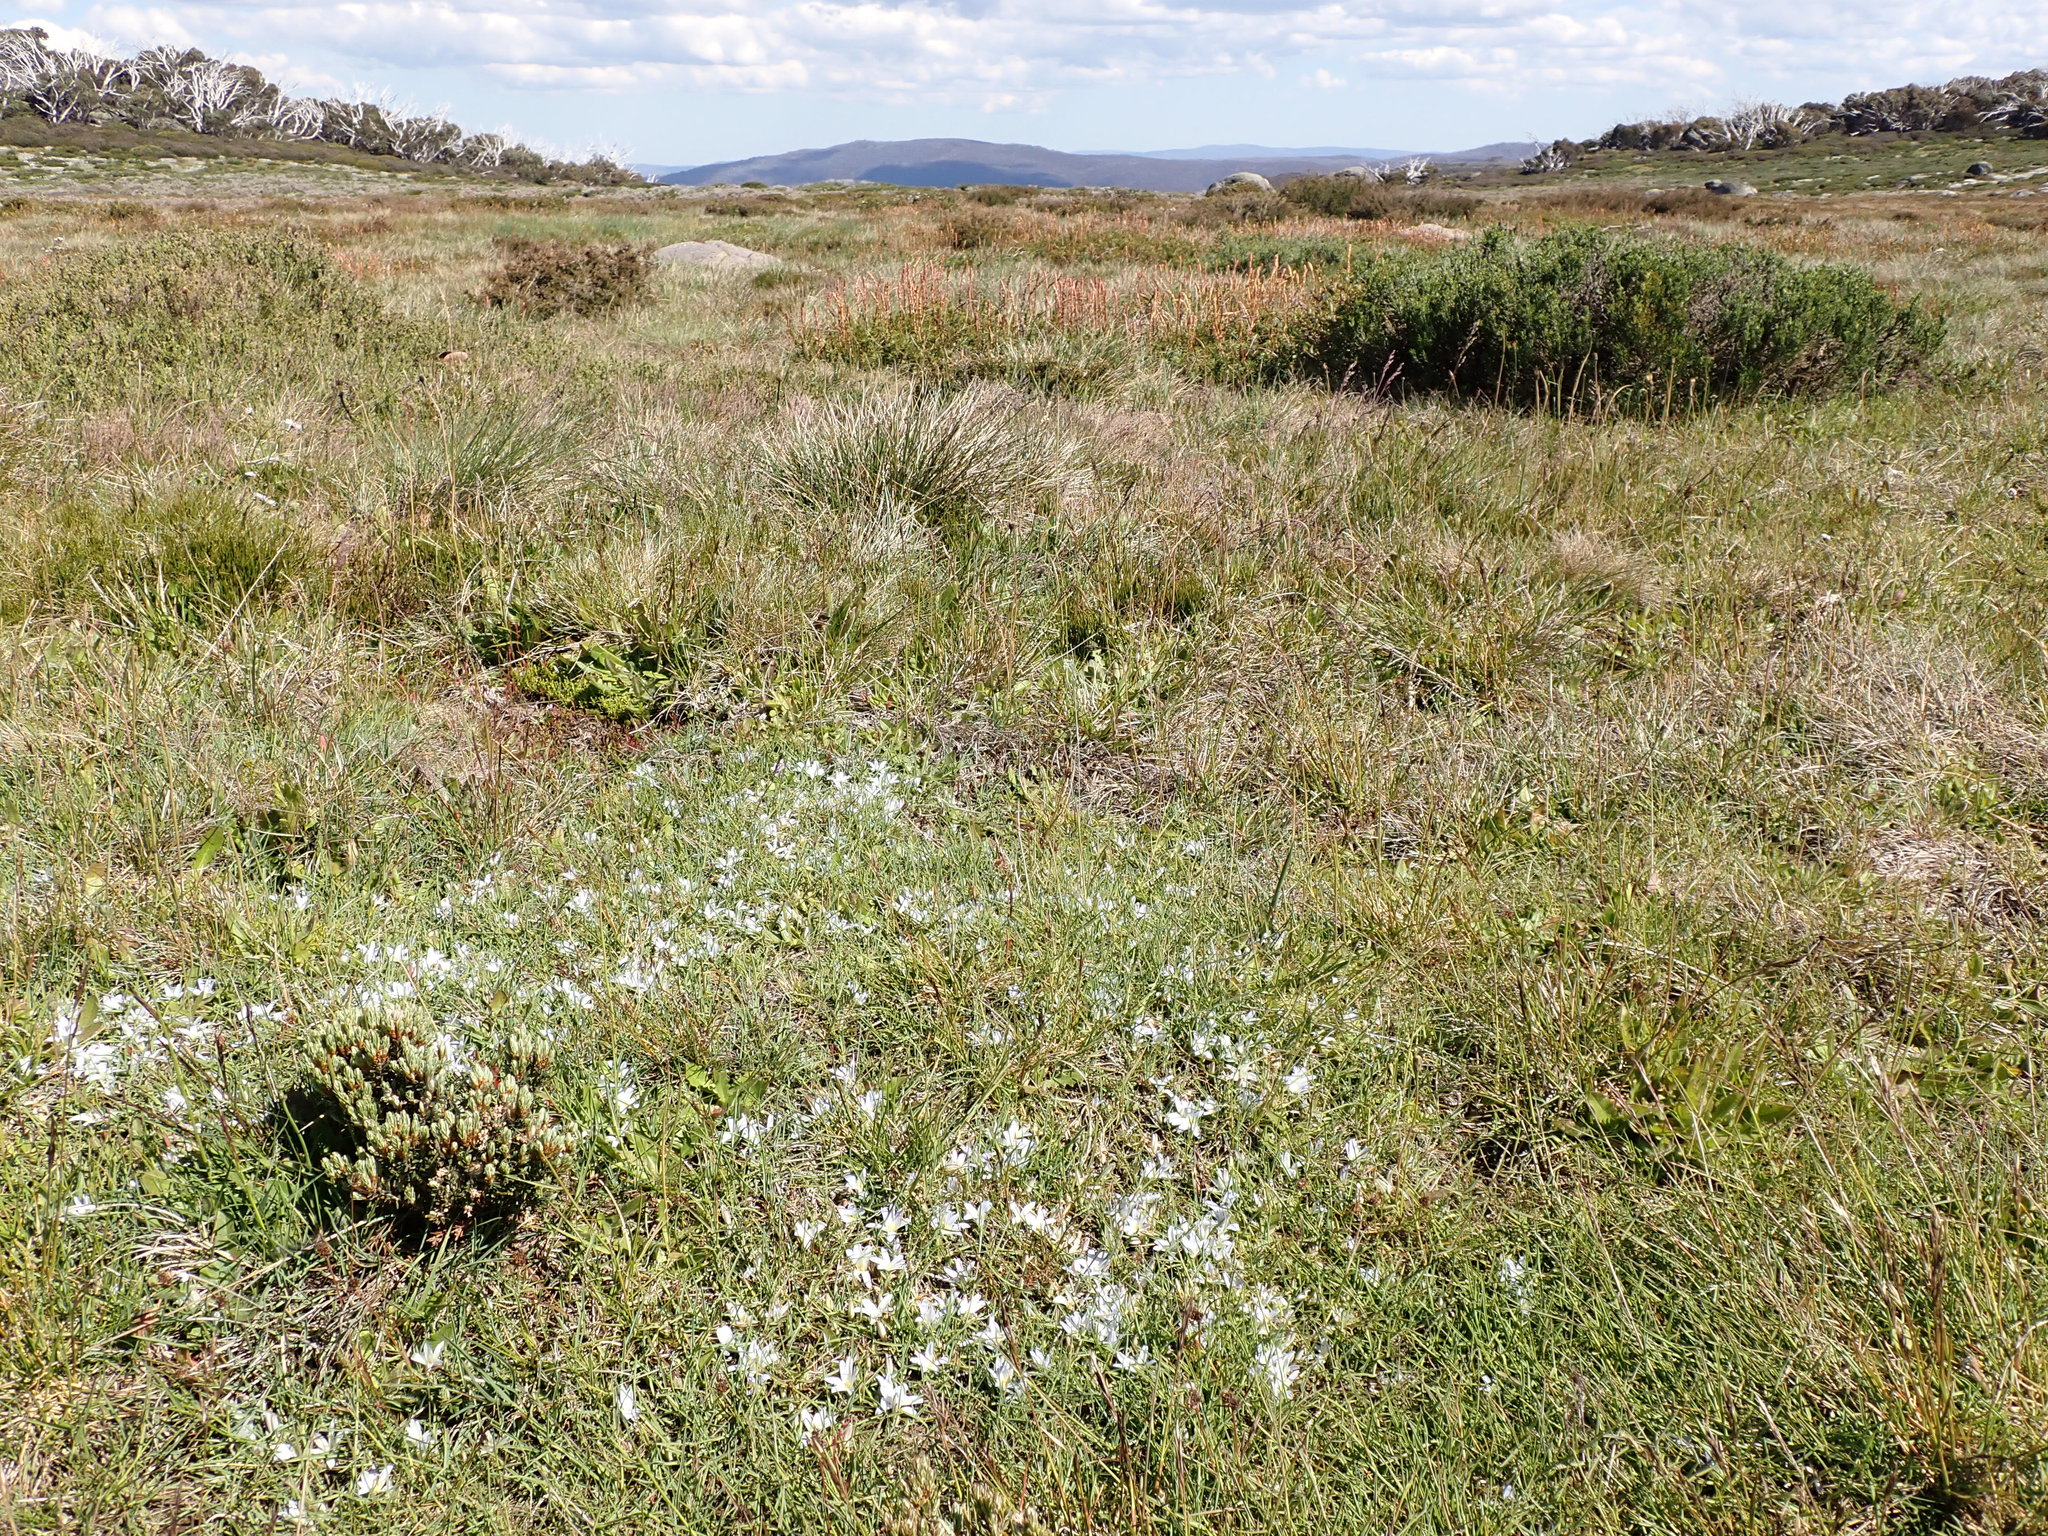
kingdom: Plantae
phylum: Tracheophyta
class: Liliopsida
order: Asparagales
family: Asphodelaceae
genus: Herpolirion
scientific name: Herpolirion novae-zelandiae
